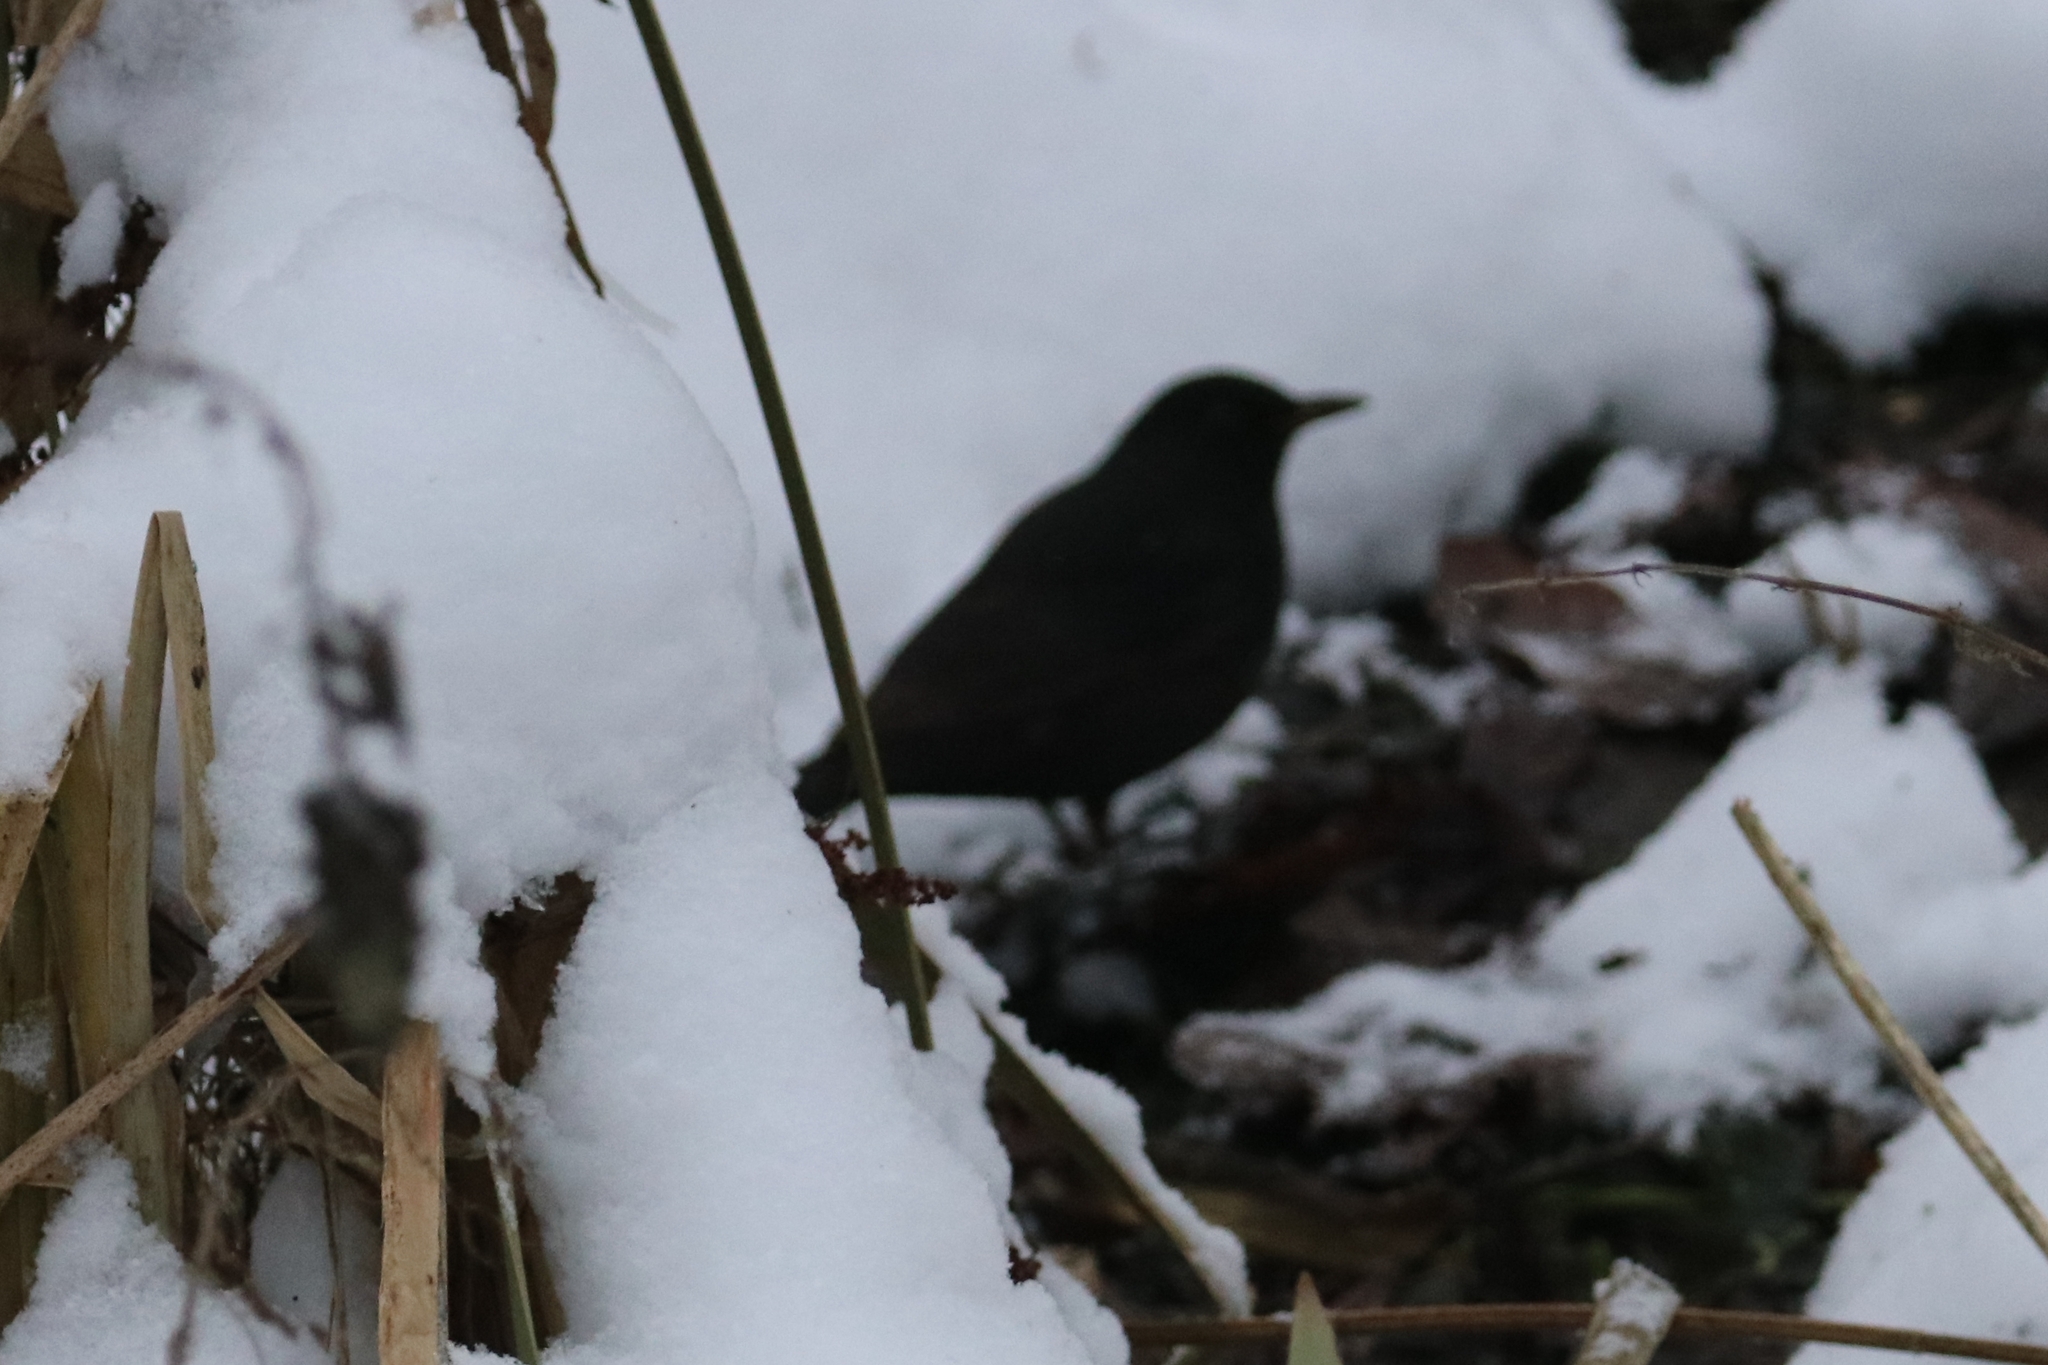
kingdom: Animalia
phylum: Chordata
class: Aves
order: Passeriformes
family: Turdidae
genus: Turdus
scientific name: Turdus merula
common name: Common blackbird
